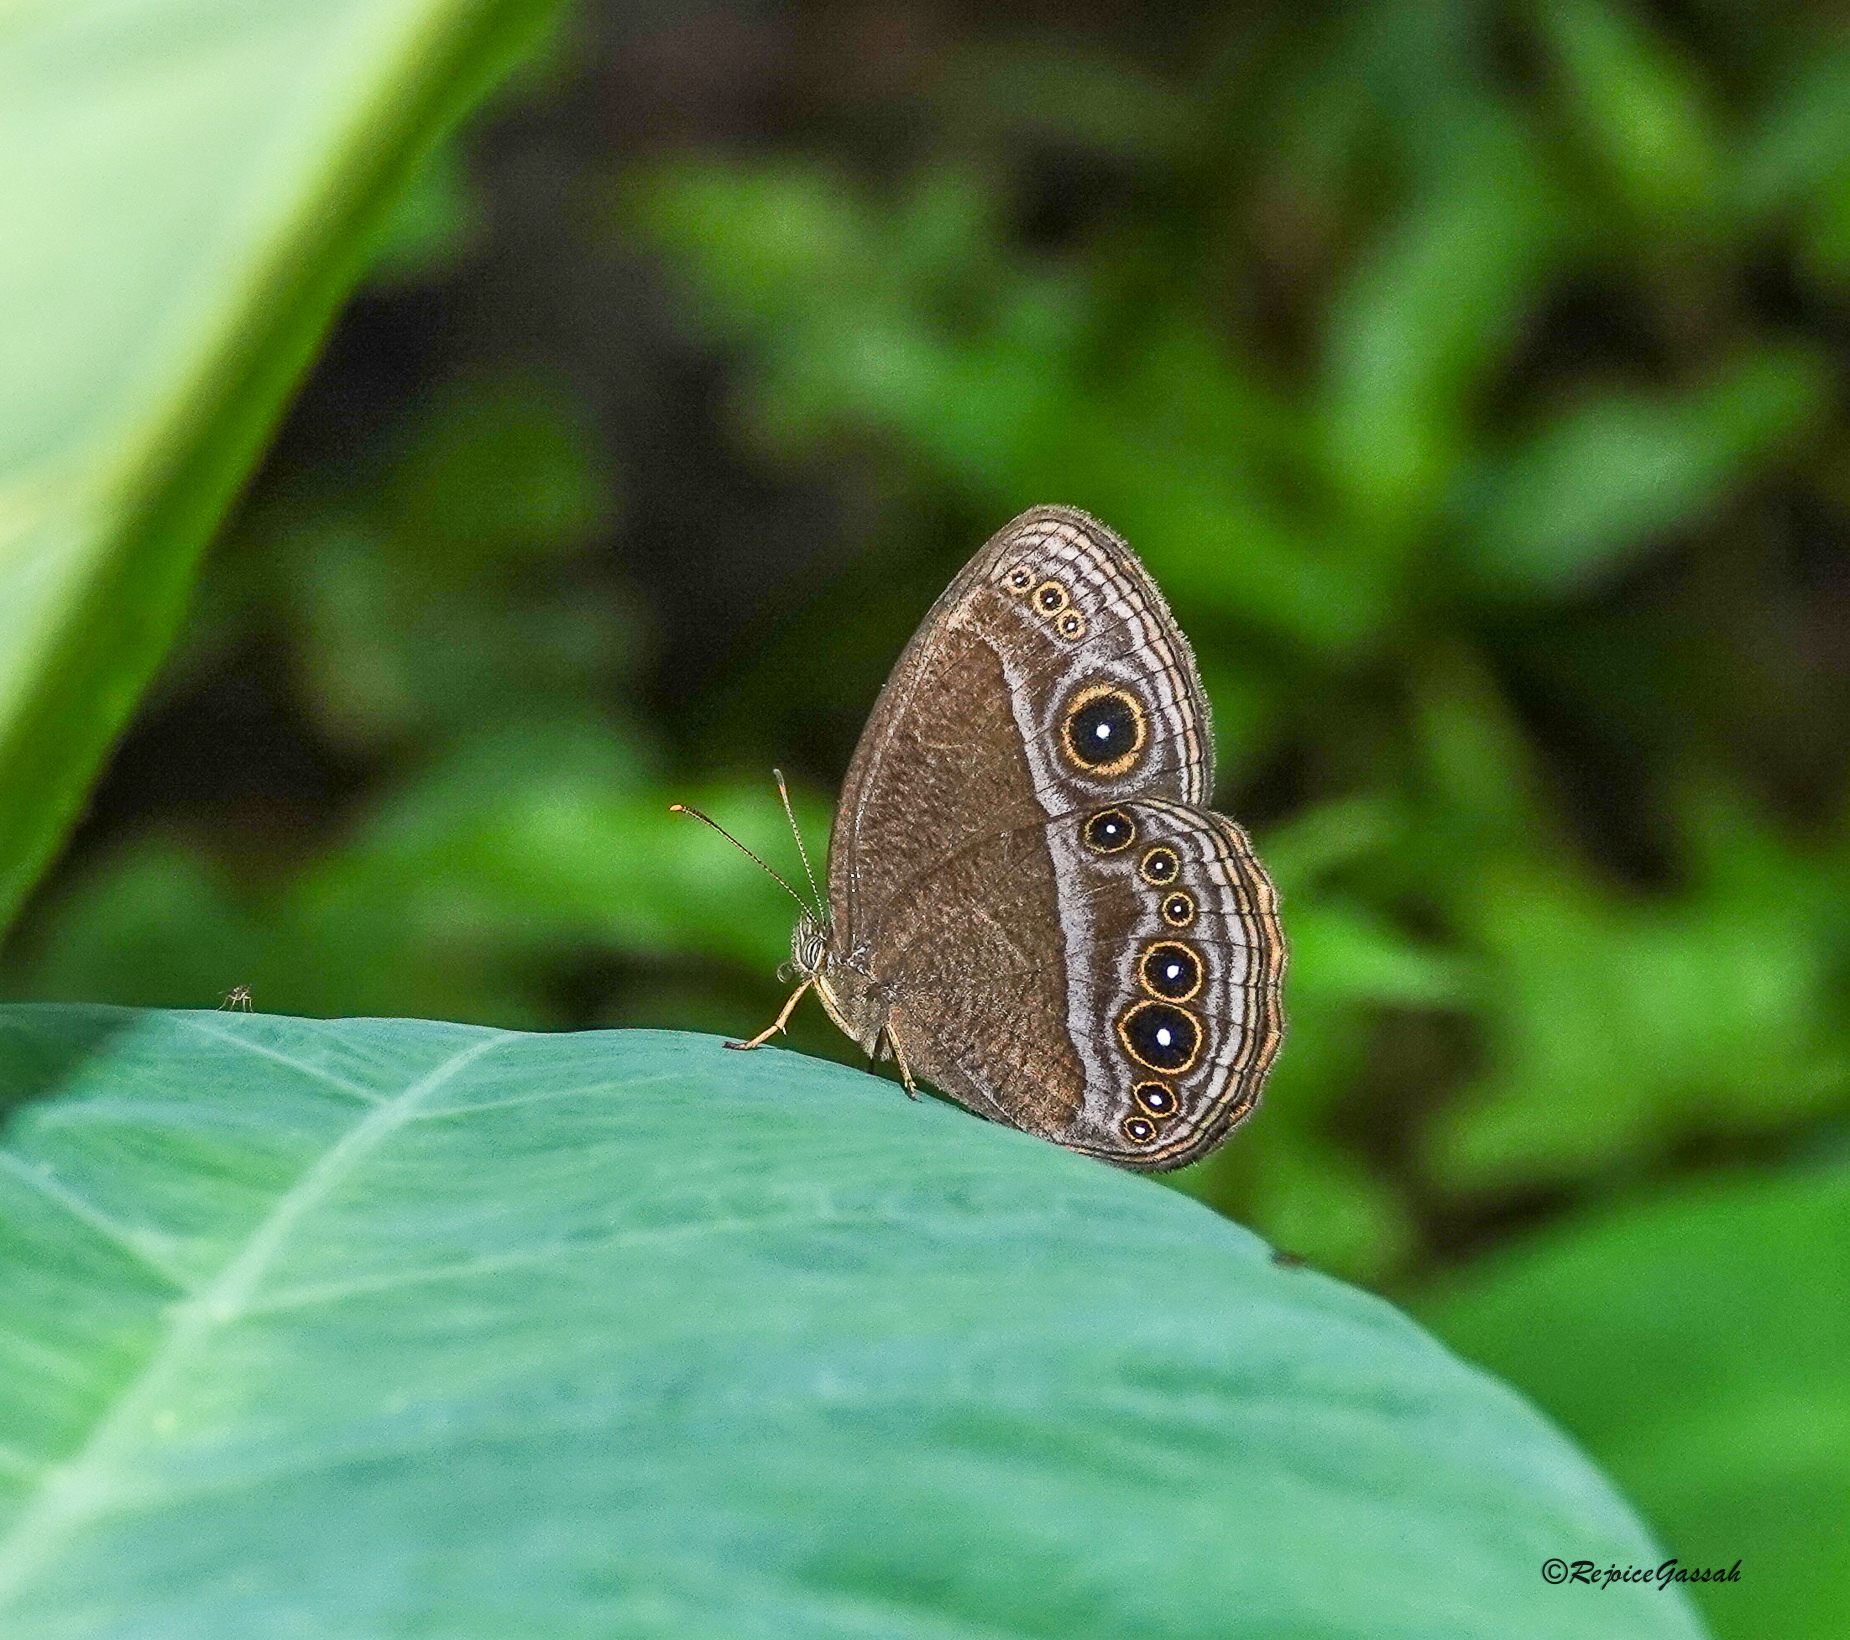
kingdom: Animalia
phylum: Arthropoda
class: Insecta
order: Lepidoptera
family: Nymphalidae
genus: Mycalesis
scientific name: Mycalesis Telinga inopia
